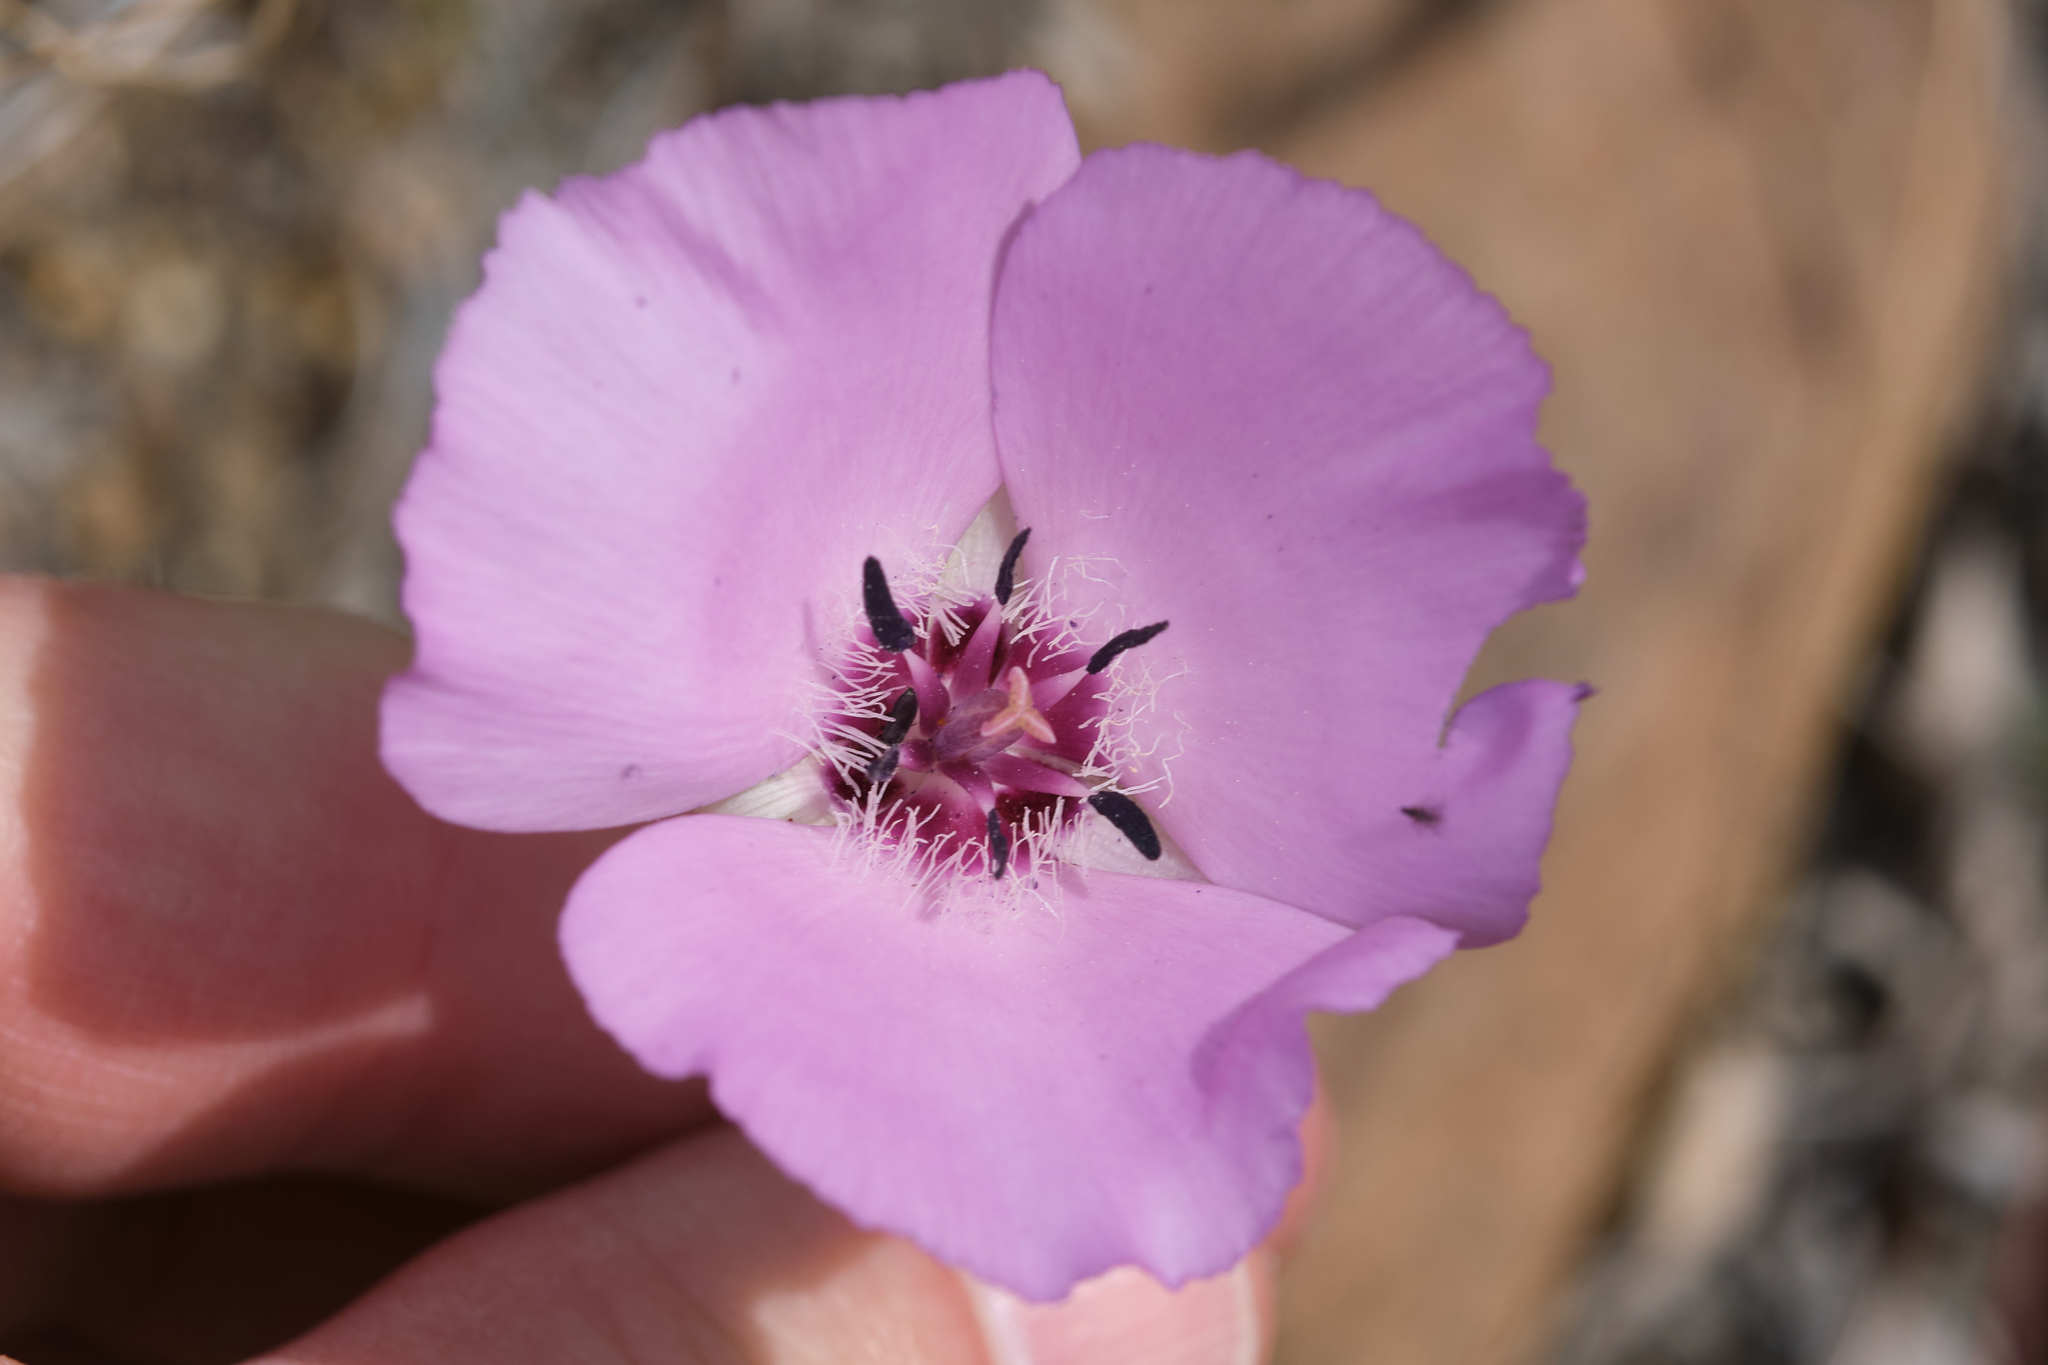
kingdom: Plantae
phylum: Tracheophyta
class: Liliopsida
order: Liliales
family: Liliaceae
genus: Calochortus
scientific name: Calochortus splendens
